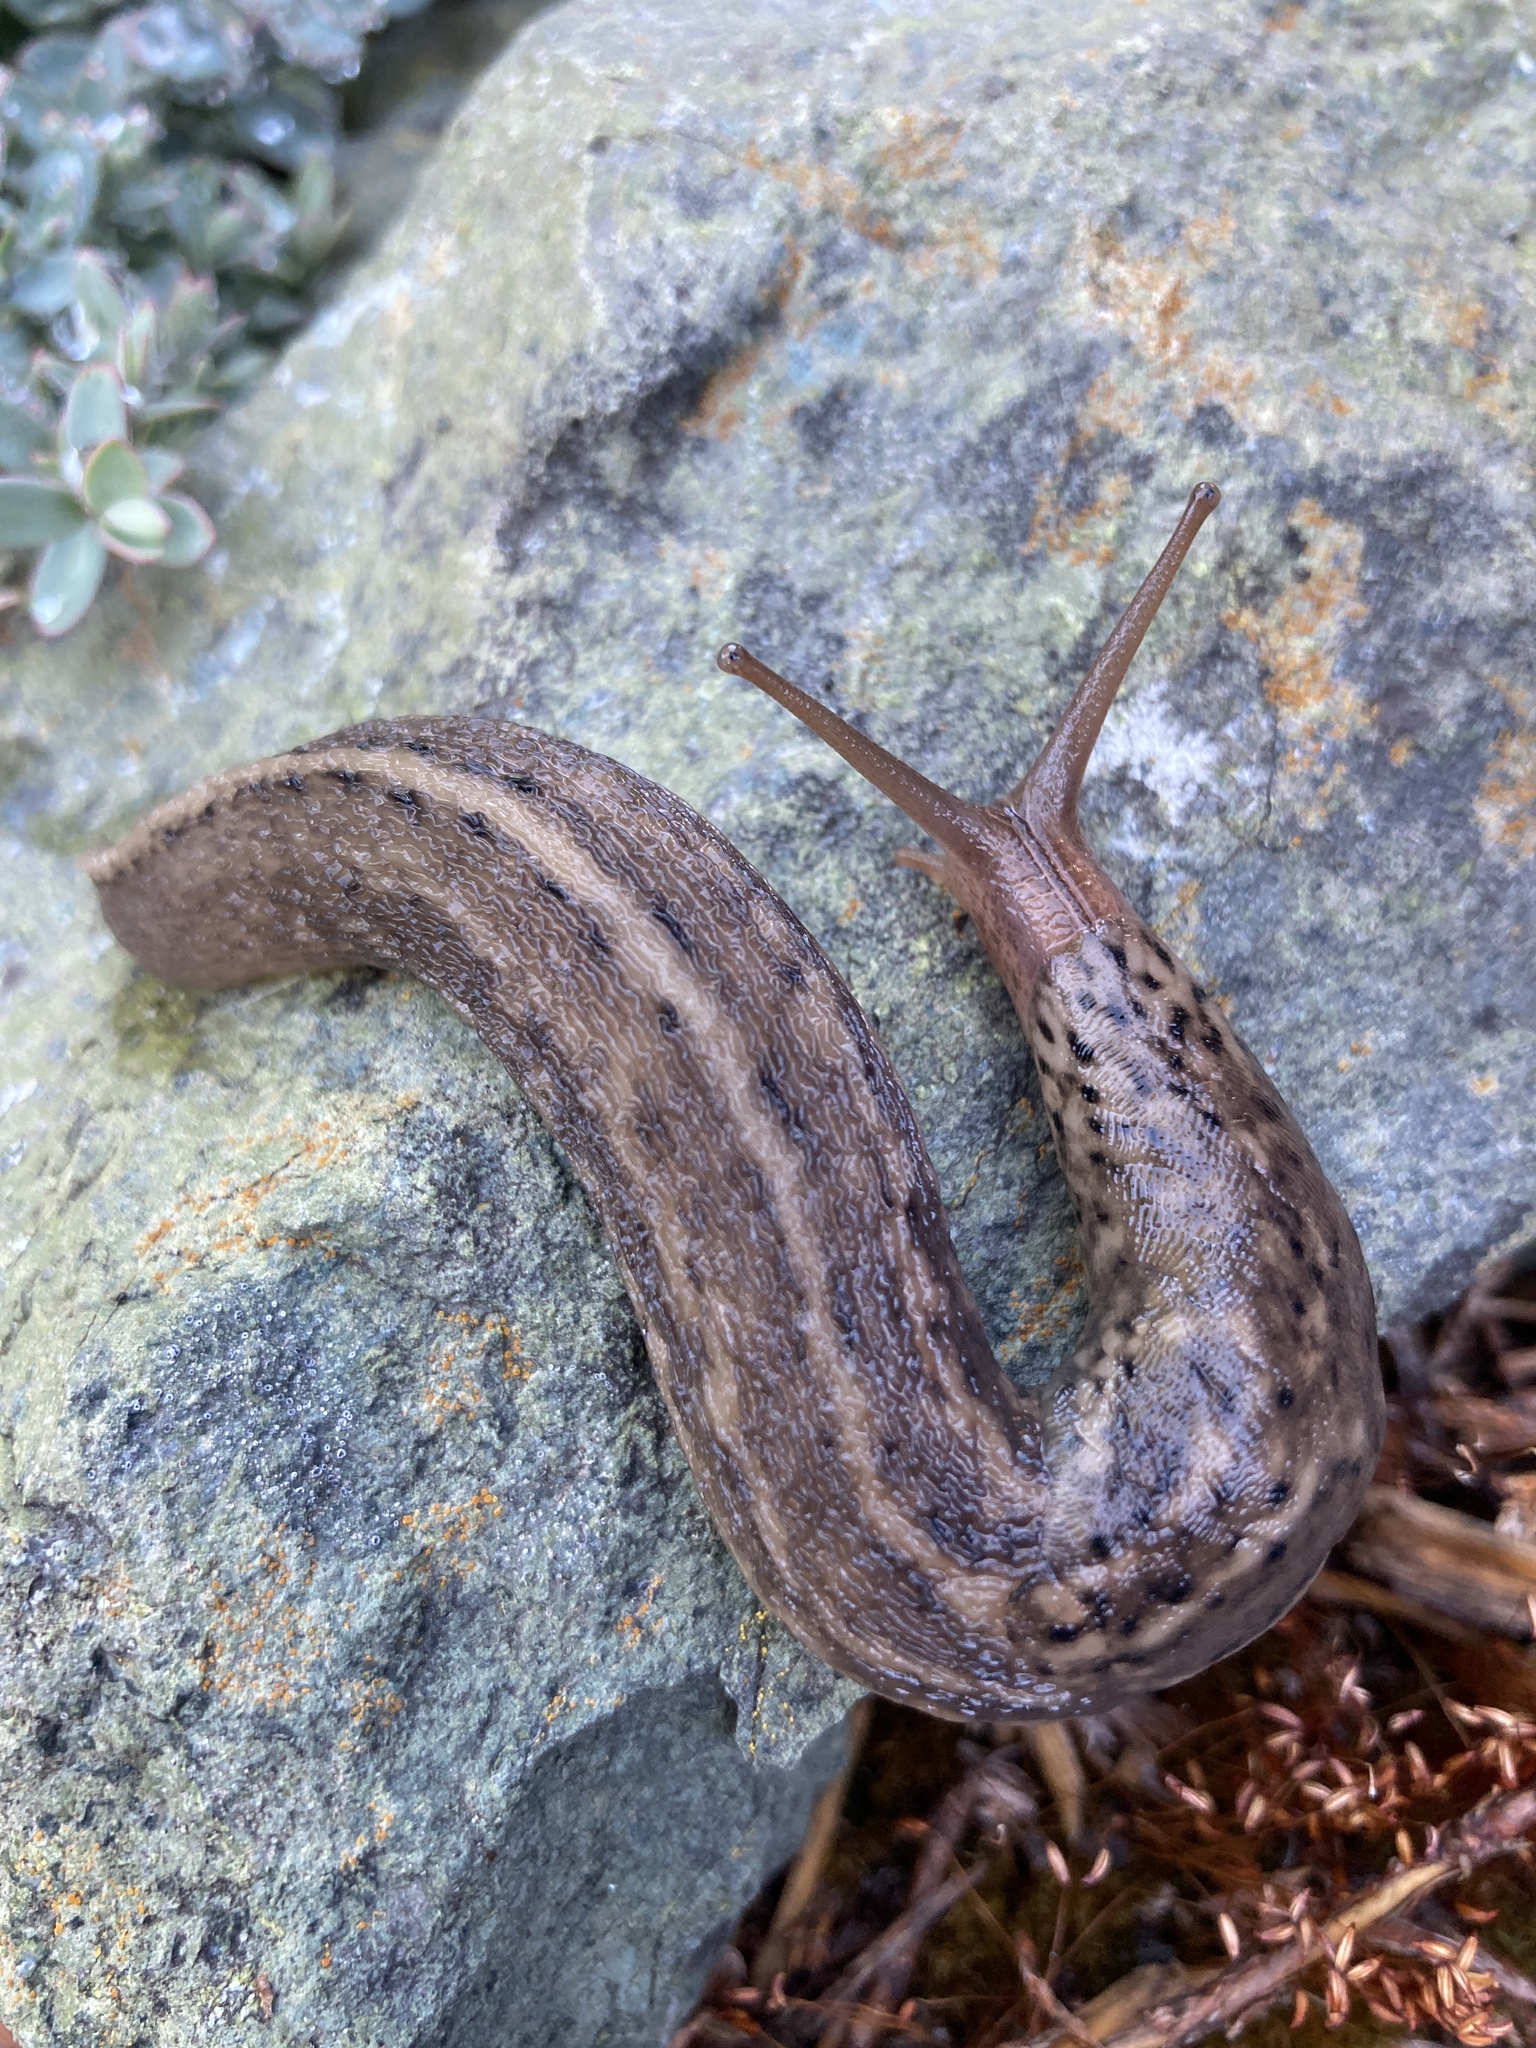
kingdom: Animalia
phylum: Mollusca
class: Gastropoda
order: Stylommatophora
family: Limacidae
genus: Limax
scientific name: Limax maximus
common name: Great grey slug
